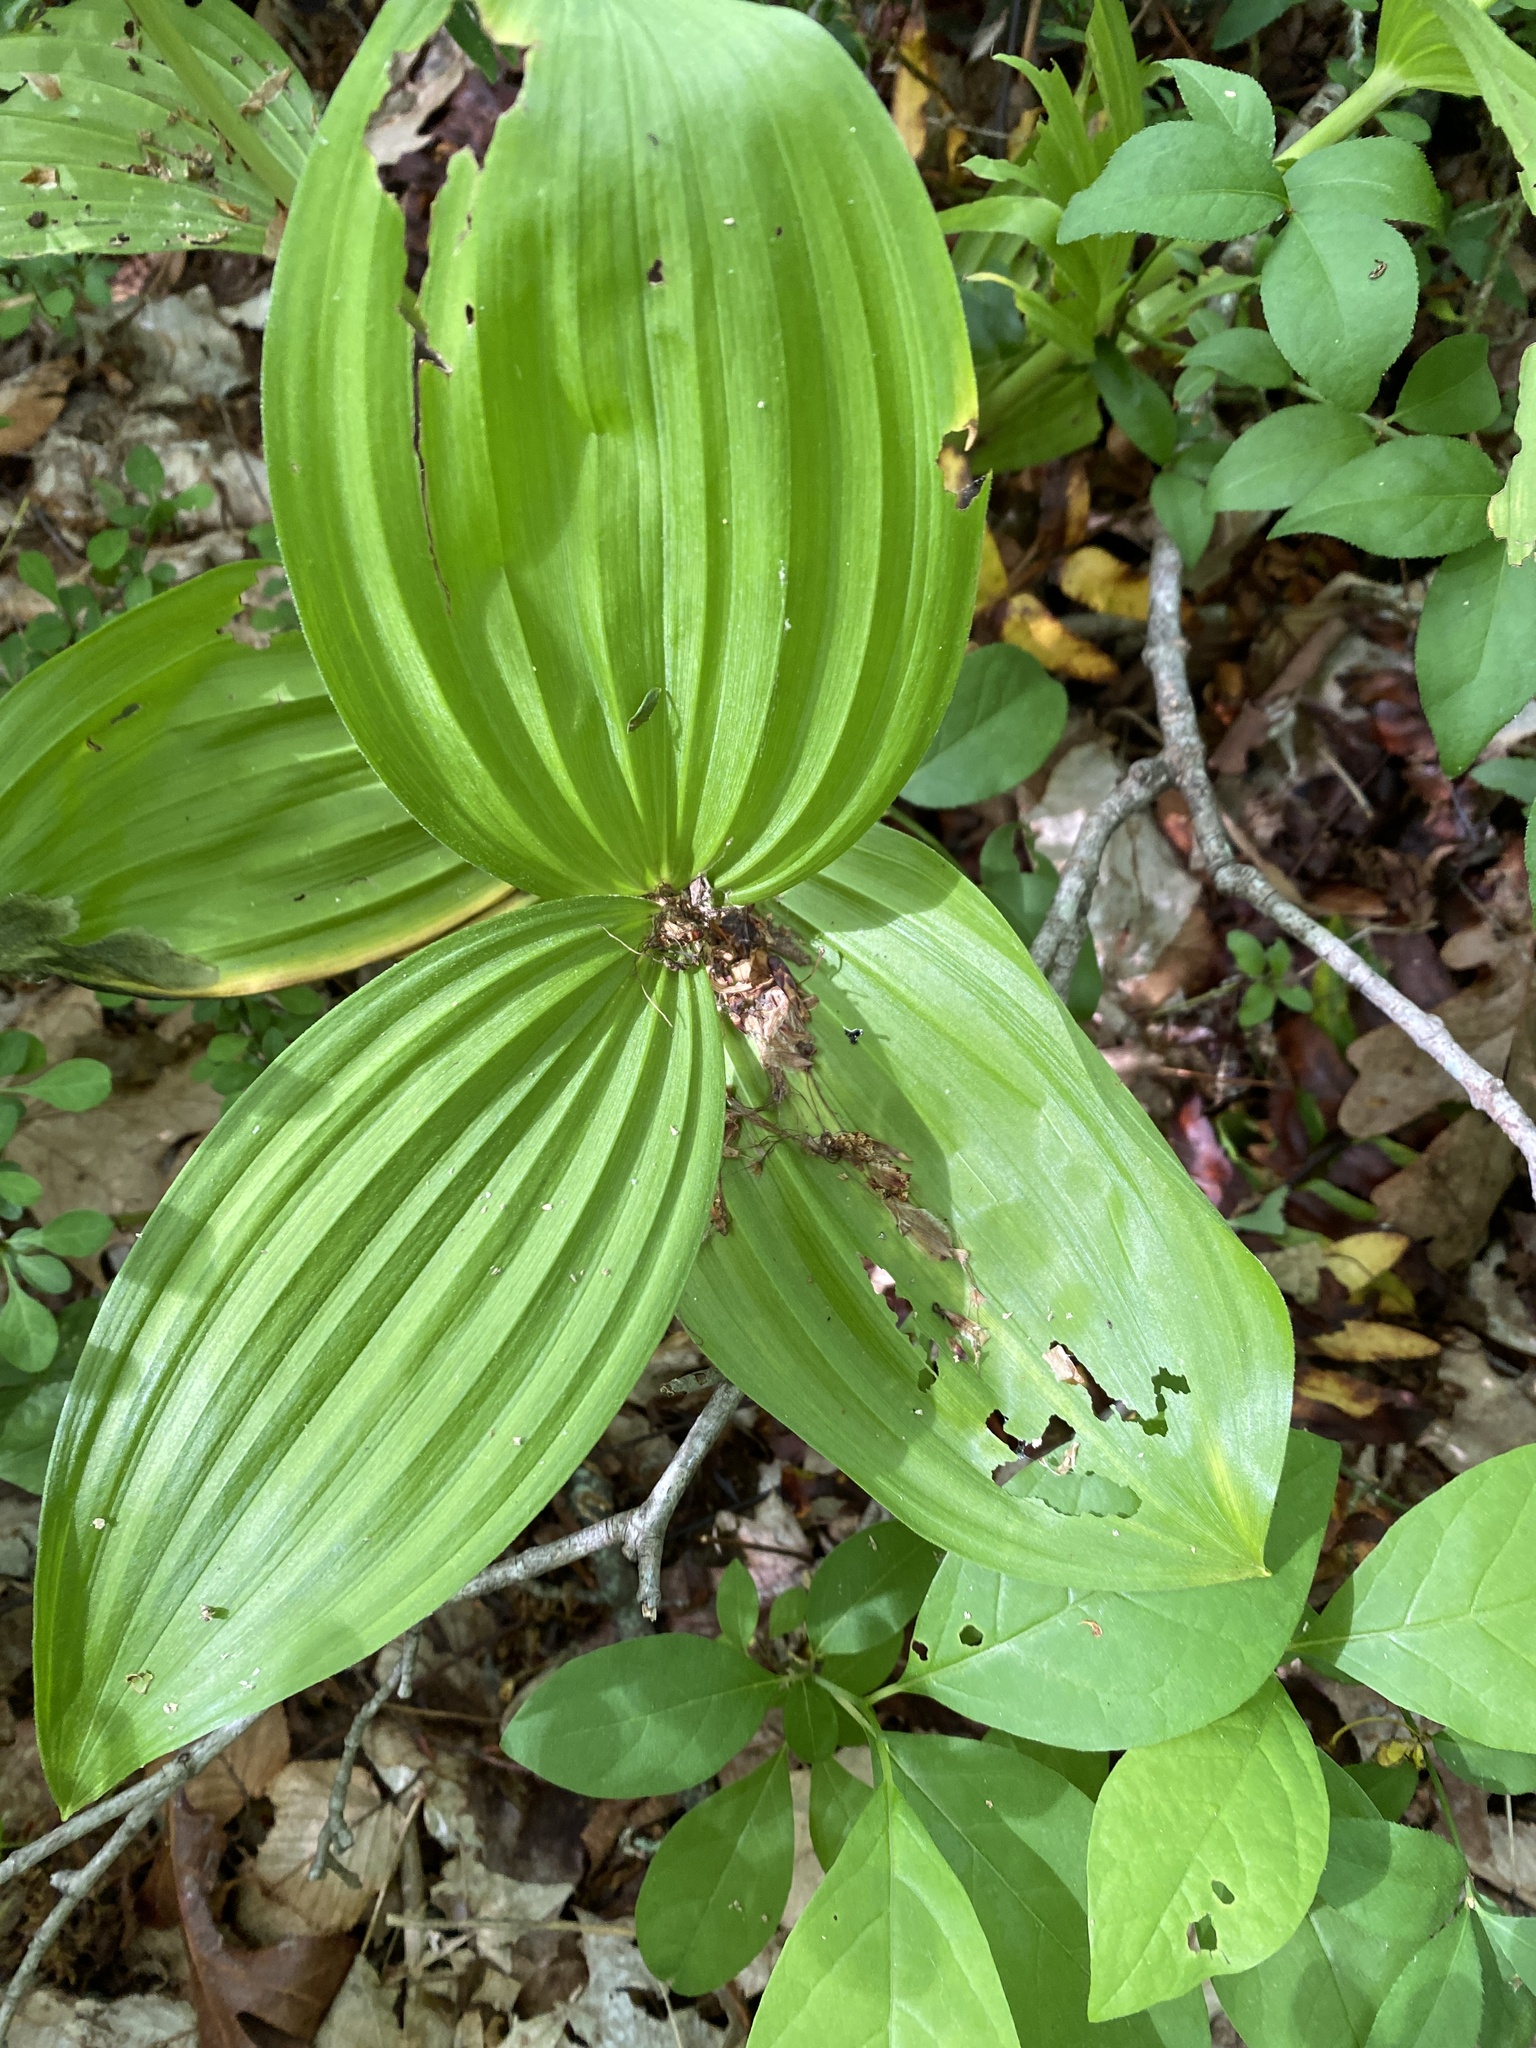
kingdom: Plantae
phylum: Tracheophyta
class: Liliopsida
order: Liliales
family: Melanthiaceae
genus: Veratrum
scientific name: Veratrum viride
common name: American false hellebore
